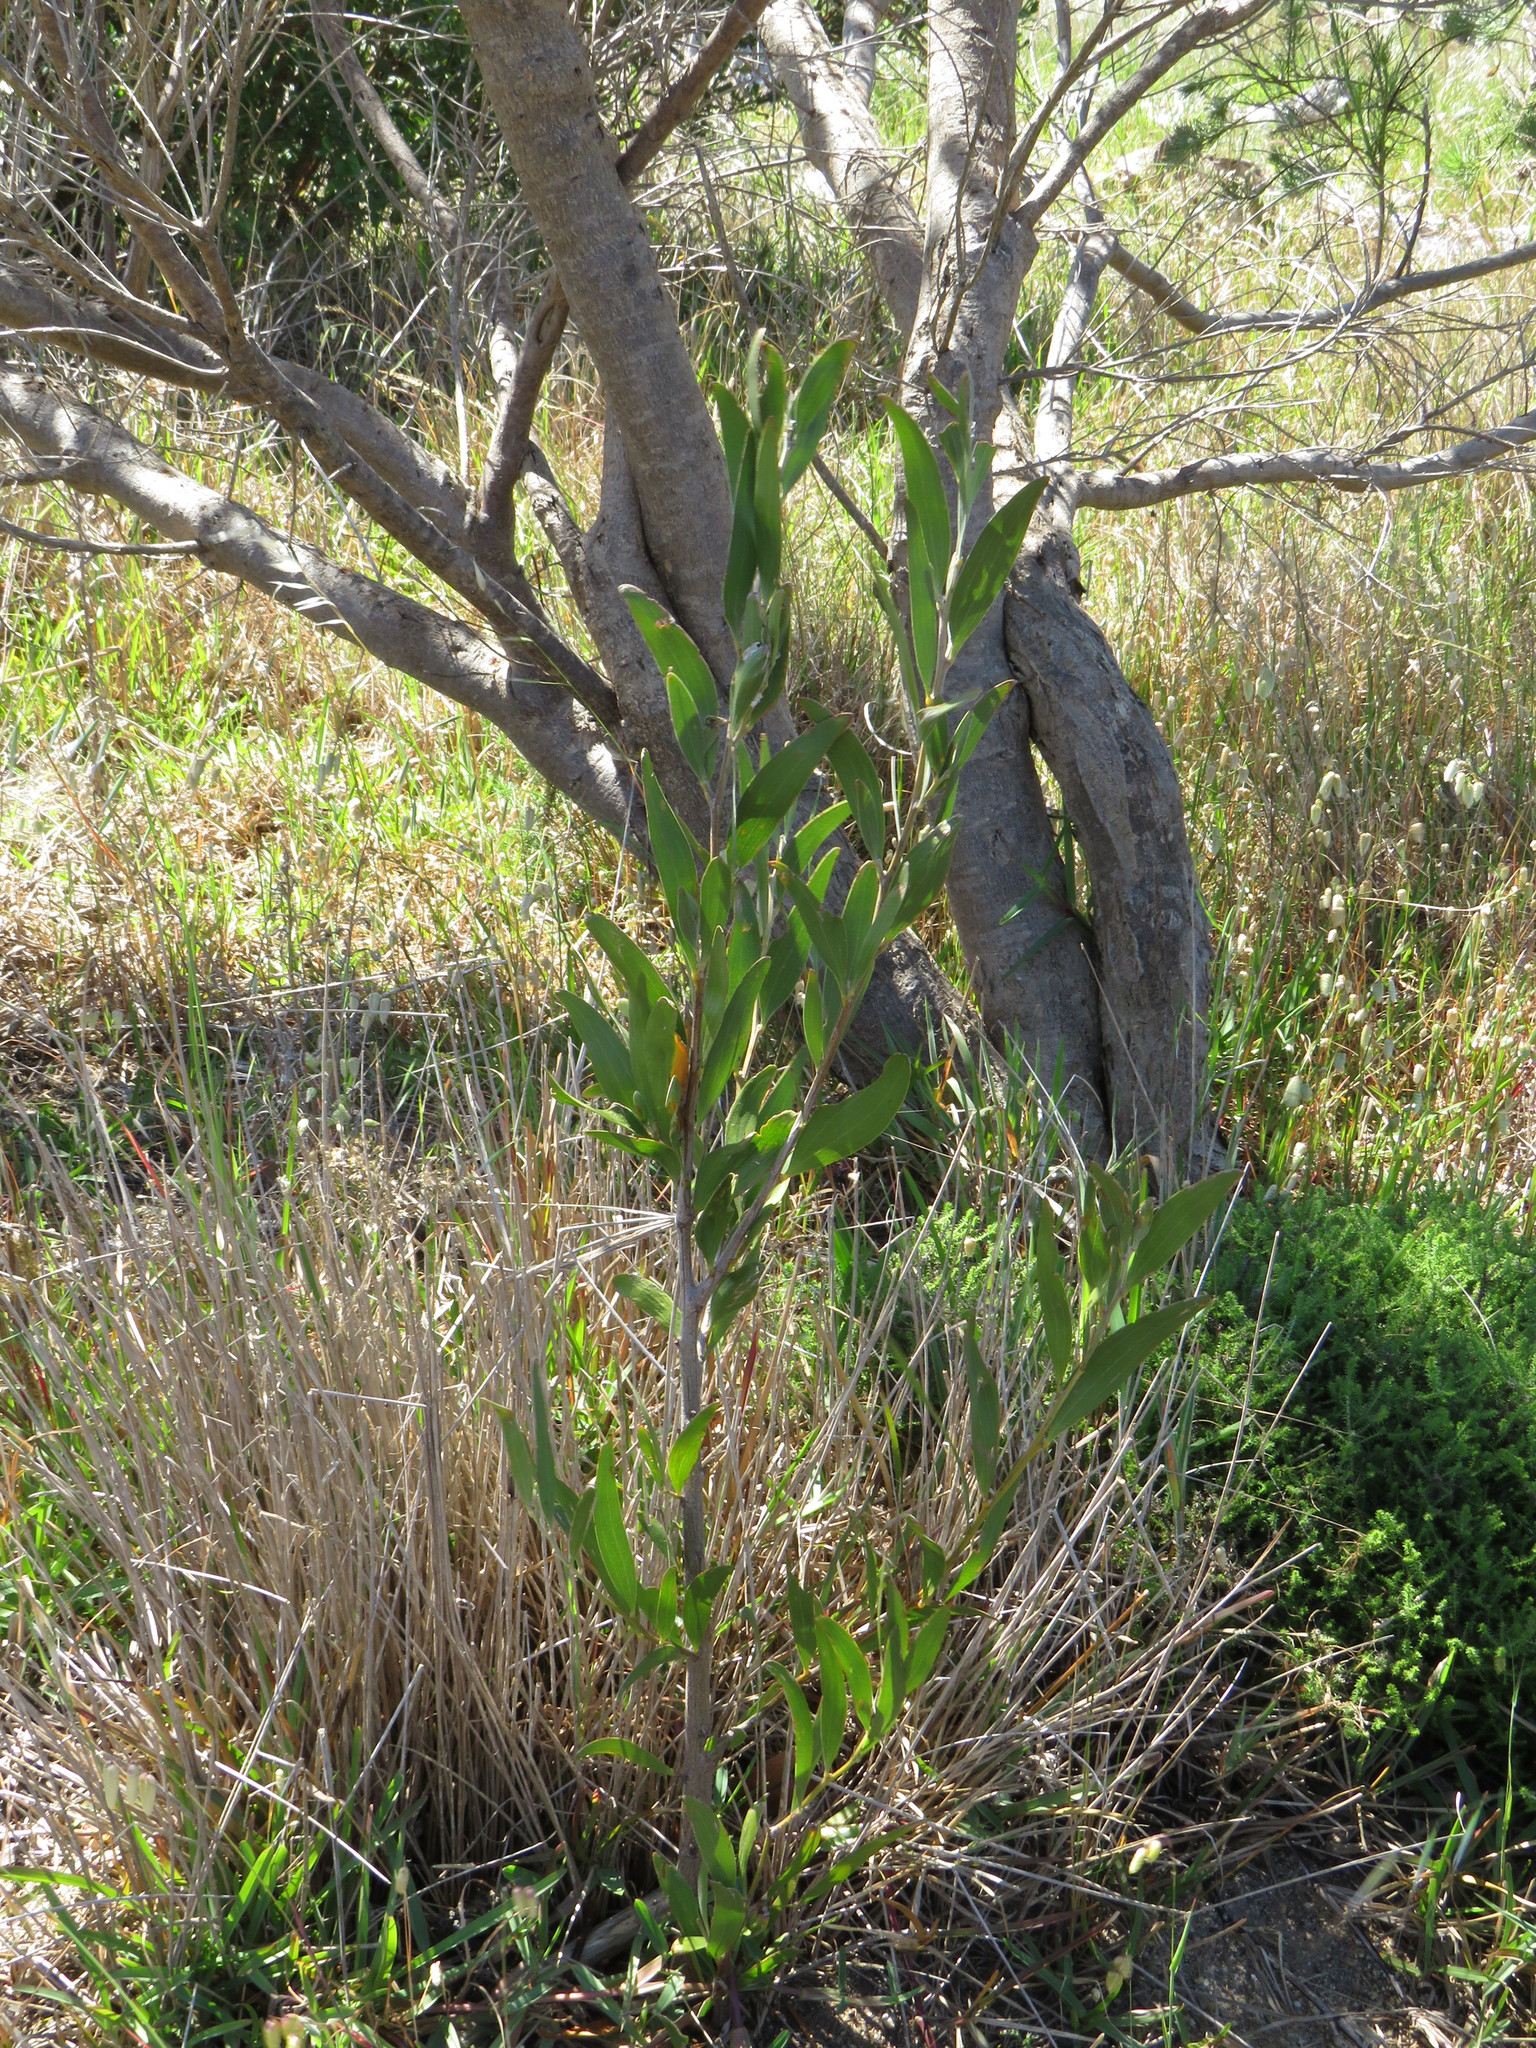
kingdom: Plantae
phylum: Tracheophyta
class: Magnoliopsida
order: Fabales
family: Fabaceae
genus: Acacia
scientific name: Acacia melanoxylon
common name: Blackwood
